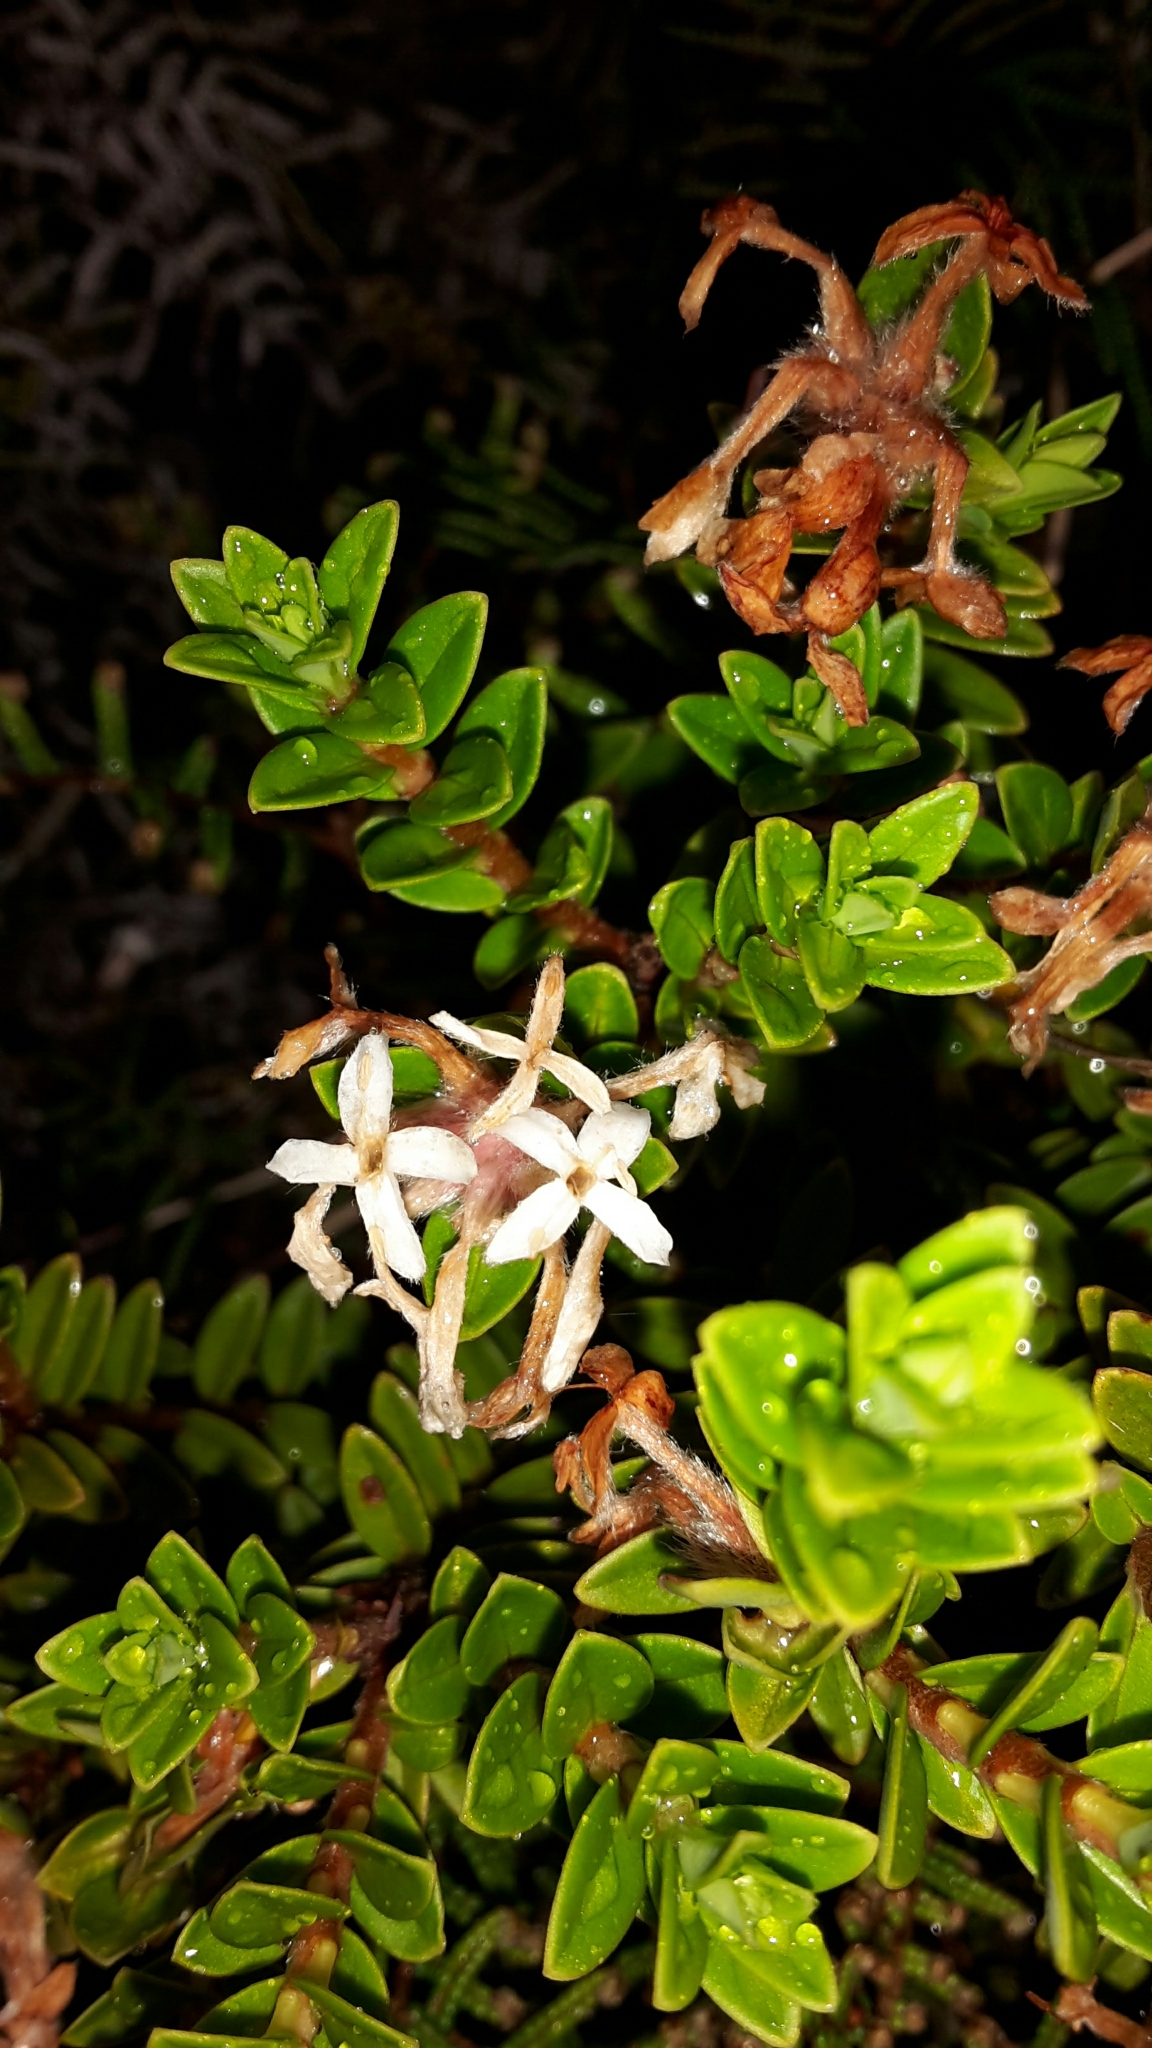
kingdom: Plantae
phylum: Tracheophyta
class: Magnoliopsida
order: Malvales
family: Thymelaeaceae
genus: Pimelea
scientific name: Pimelea buxifolia
